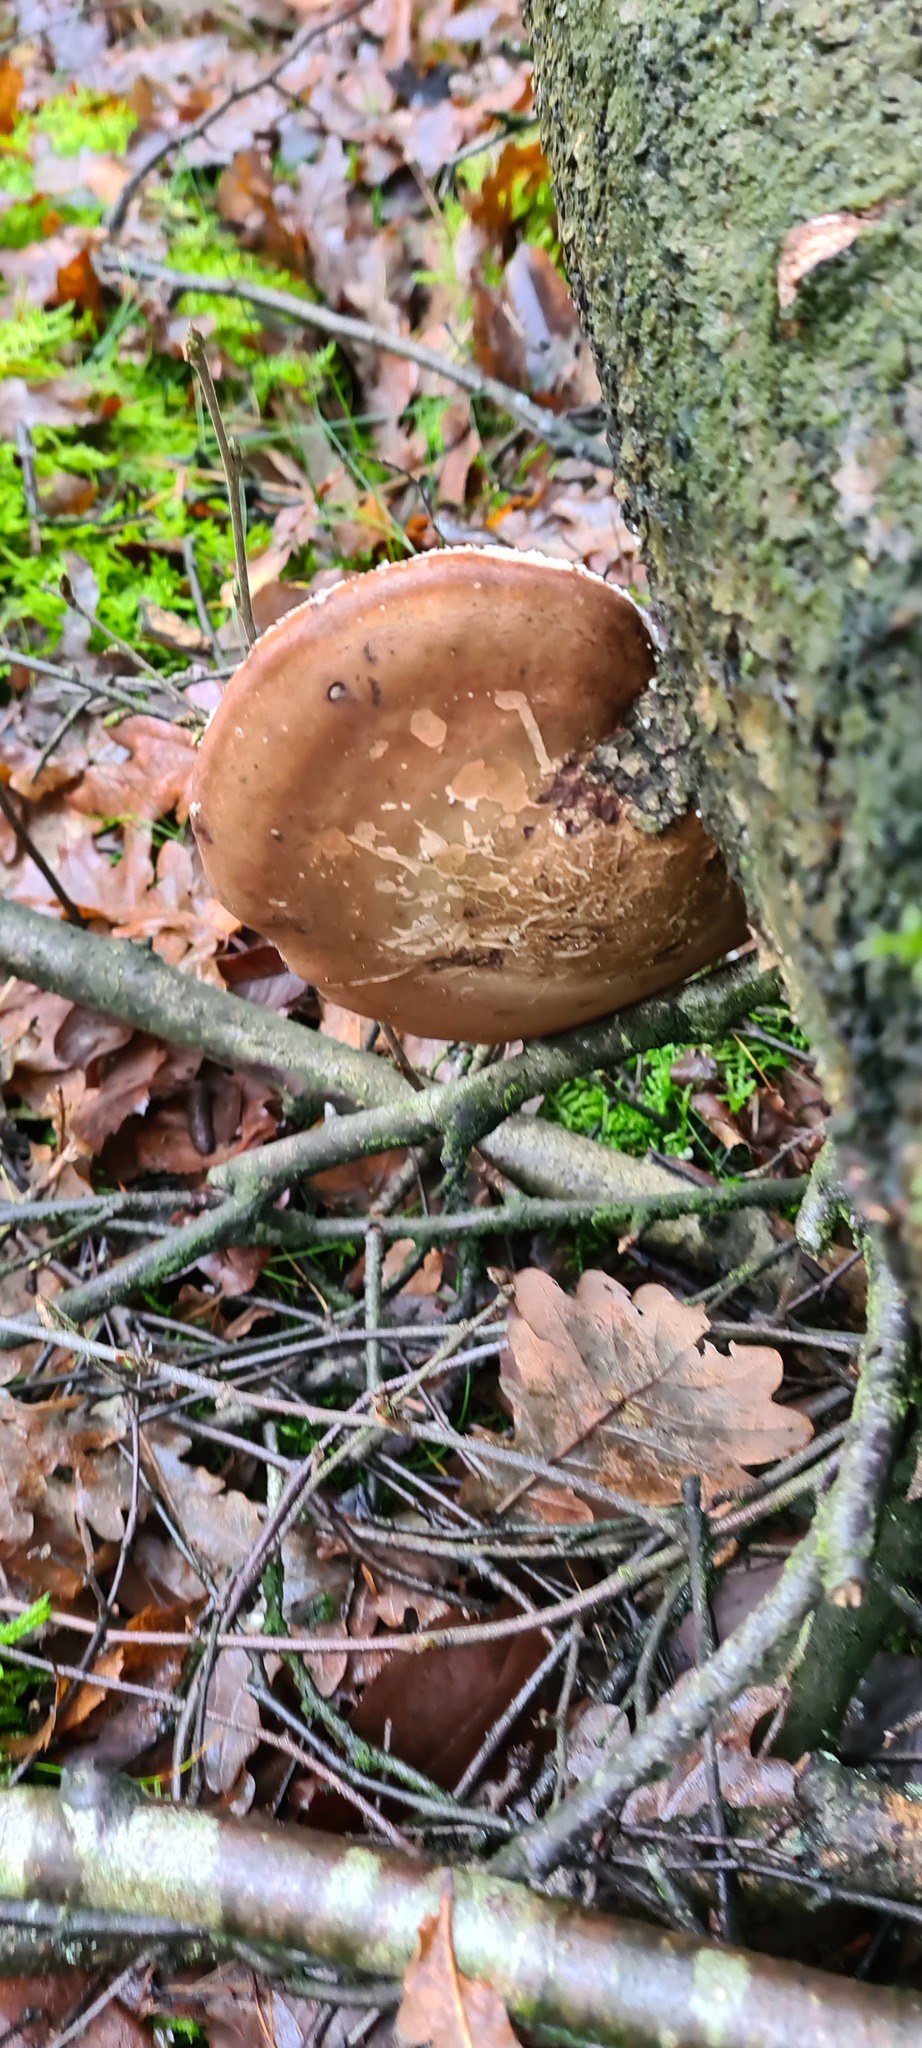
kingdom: Fungi
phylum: Basidiomycota
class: Agaricomycetes
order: Polyporales
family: Fomitopsidaceae
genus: Fomitopsis
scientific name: Fomitopsis betulina
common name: Birch polypore
